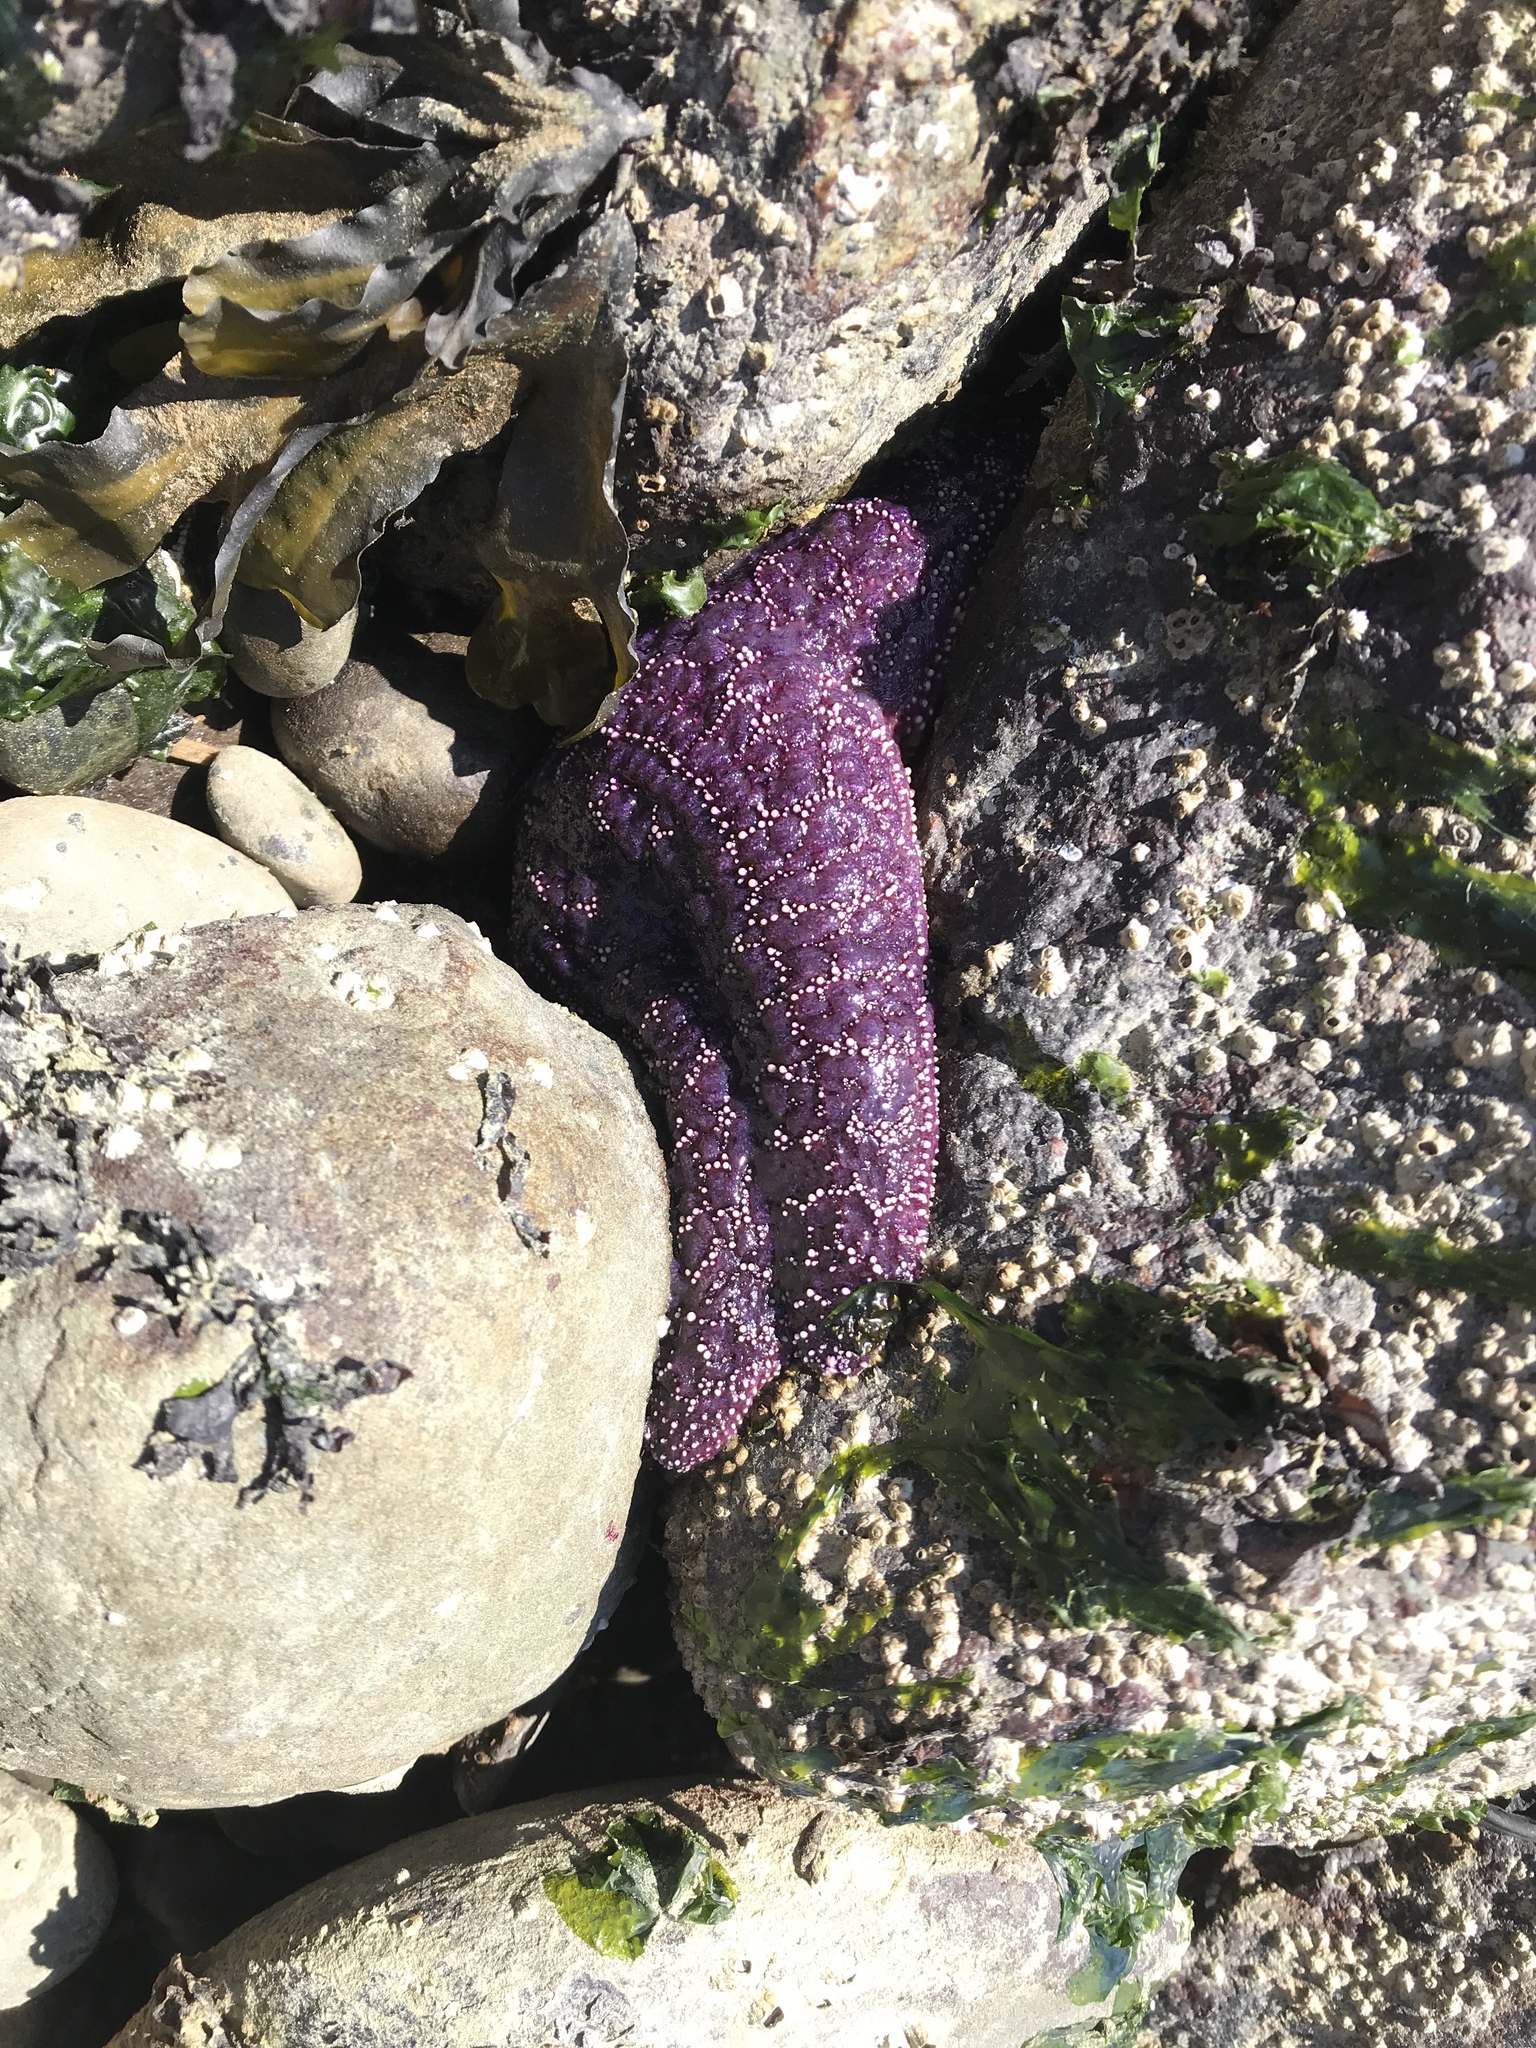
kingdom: Animalia
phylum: Echinodermata
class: Asteroidea
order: Forcipulatida
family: Asteriidae
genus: Pisaster
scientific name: Pisaster ochraceus
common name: Ochre stars
